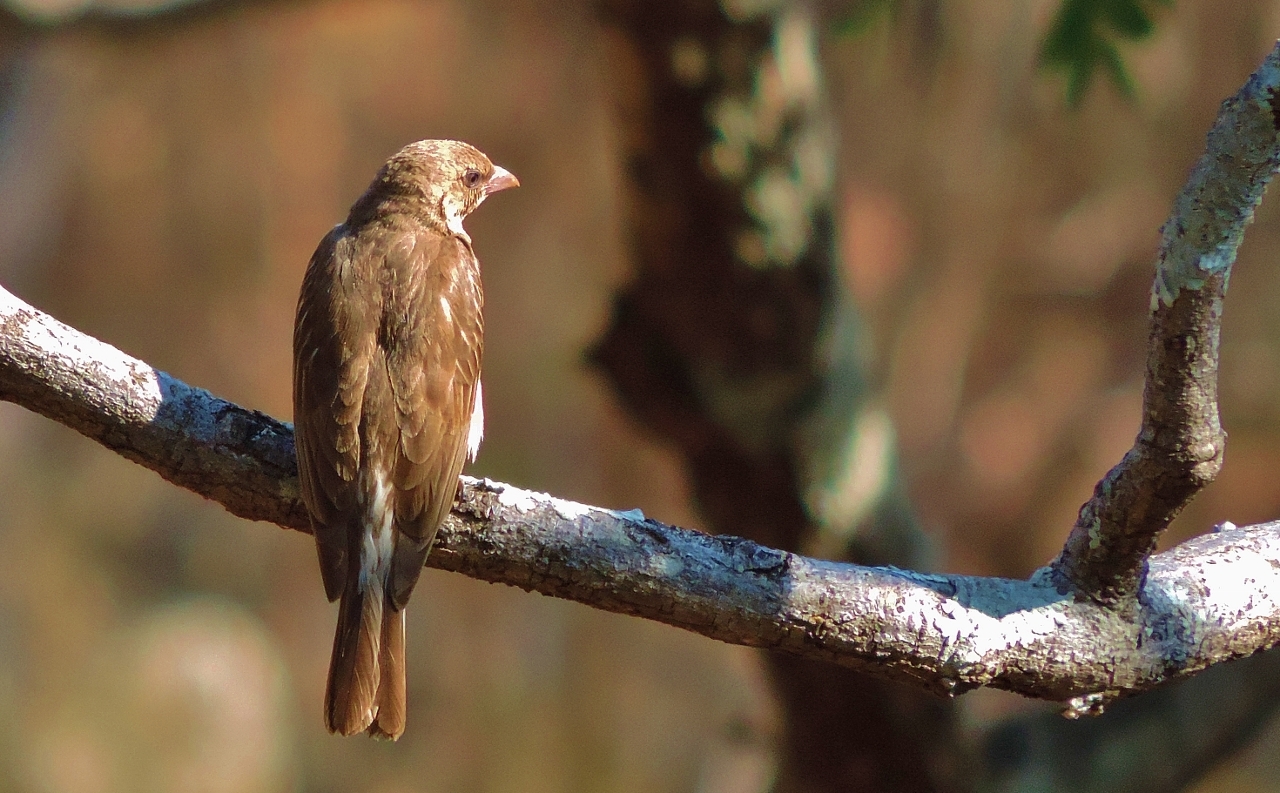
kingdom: Animalia
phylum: Chordata
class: Aves
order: Piciformes
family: Indicatoridae
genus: Indicator
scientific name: Indicator indicator
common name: Greater honeyguide
